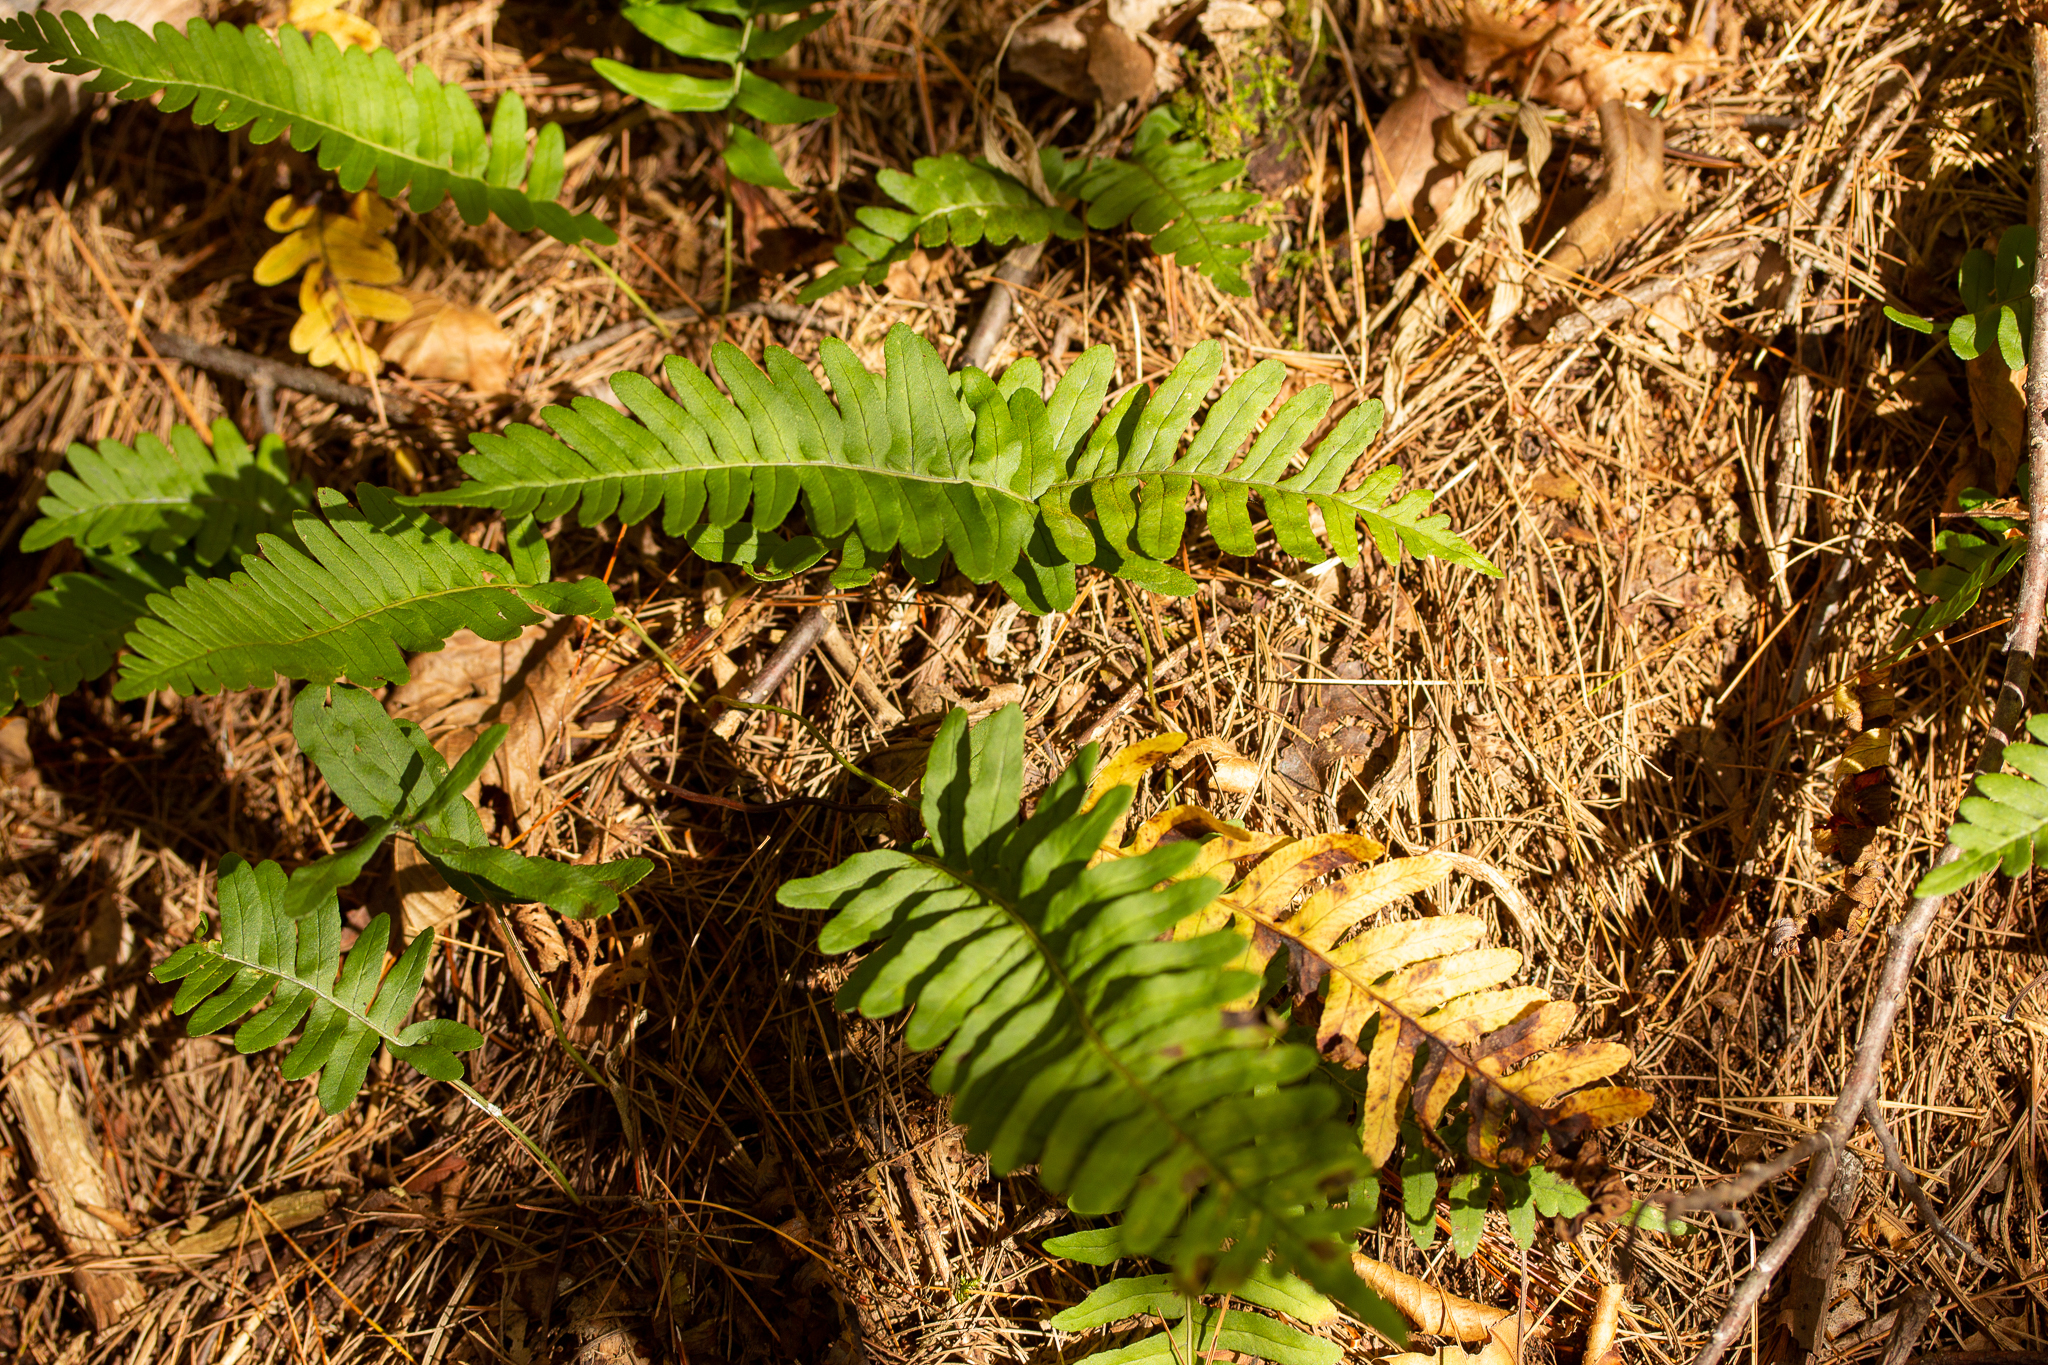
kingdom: Plantae
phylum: Tracheophyta
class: Polypodiopsida
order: Polypodiales
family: Polypodiaceae
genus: Polypodium
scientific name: Polypodium virginianum
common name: American wall fern
